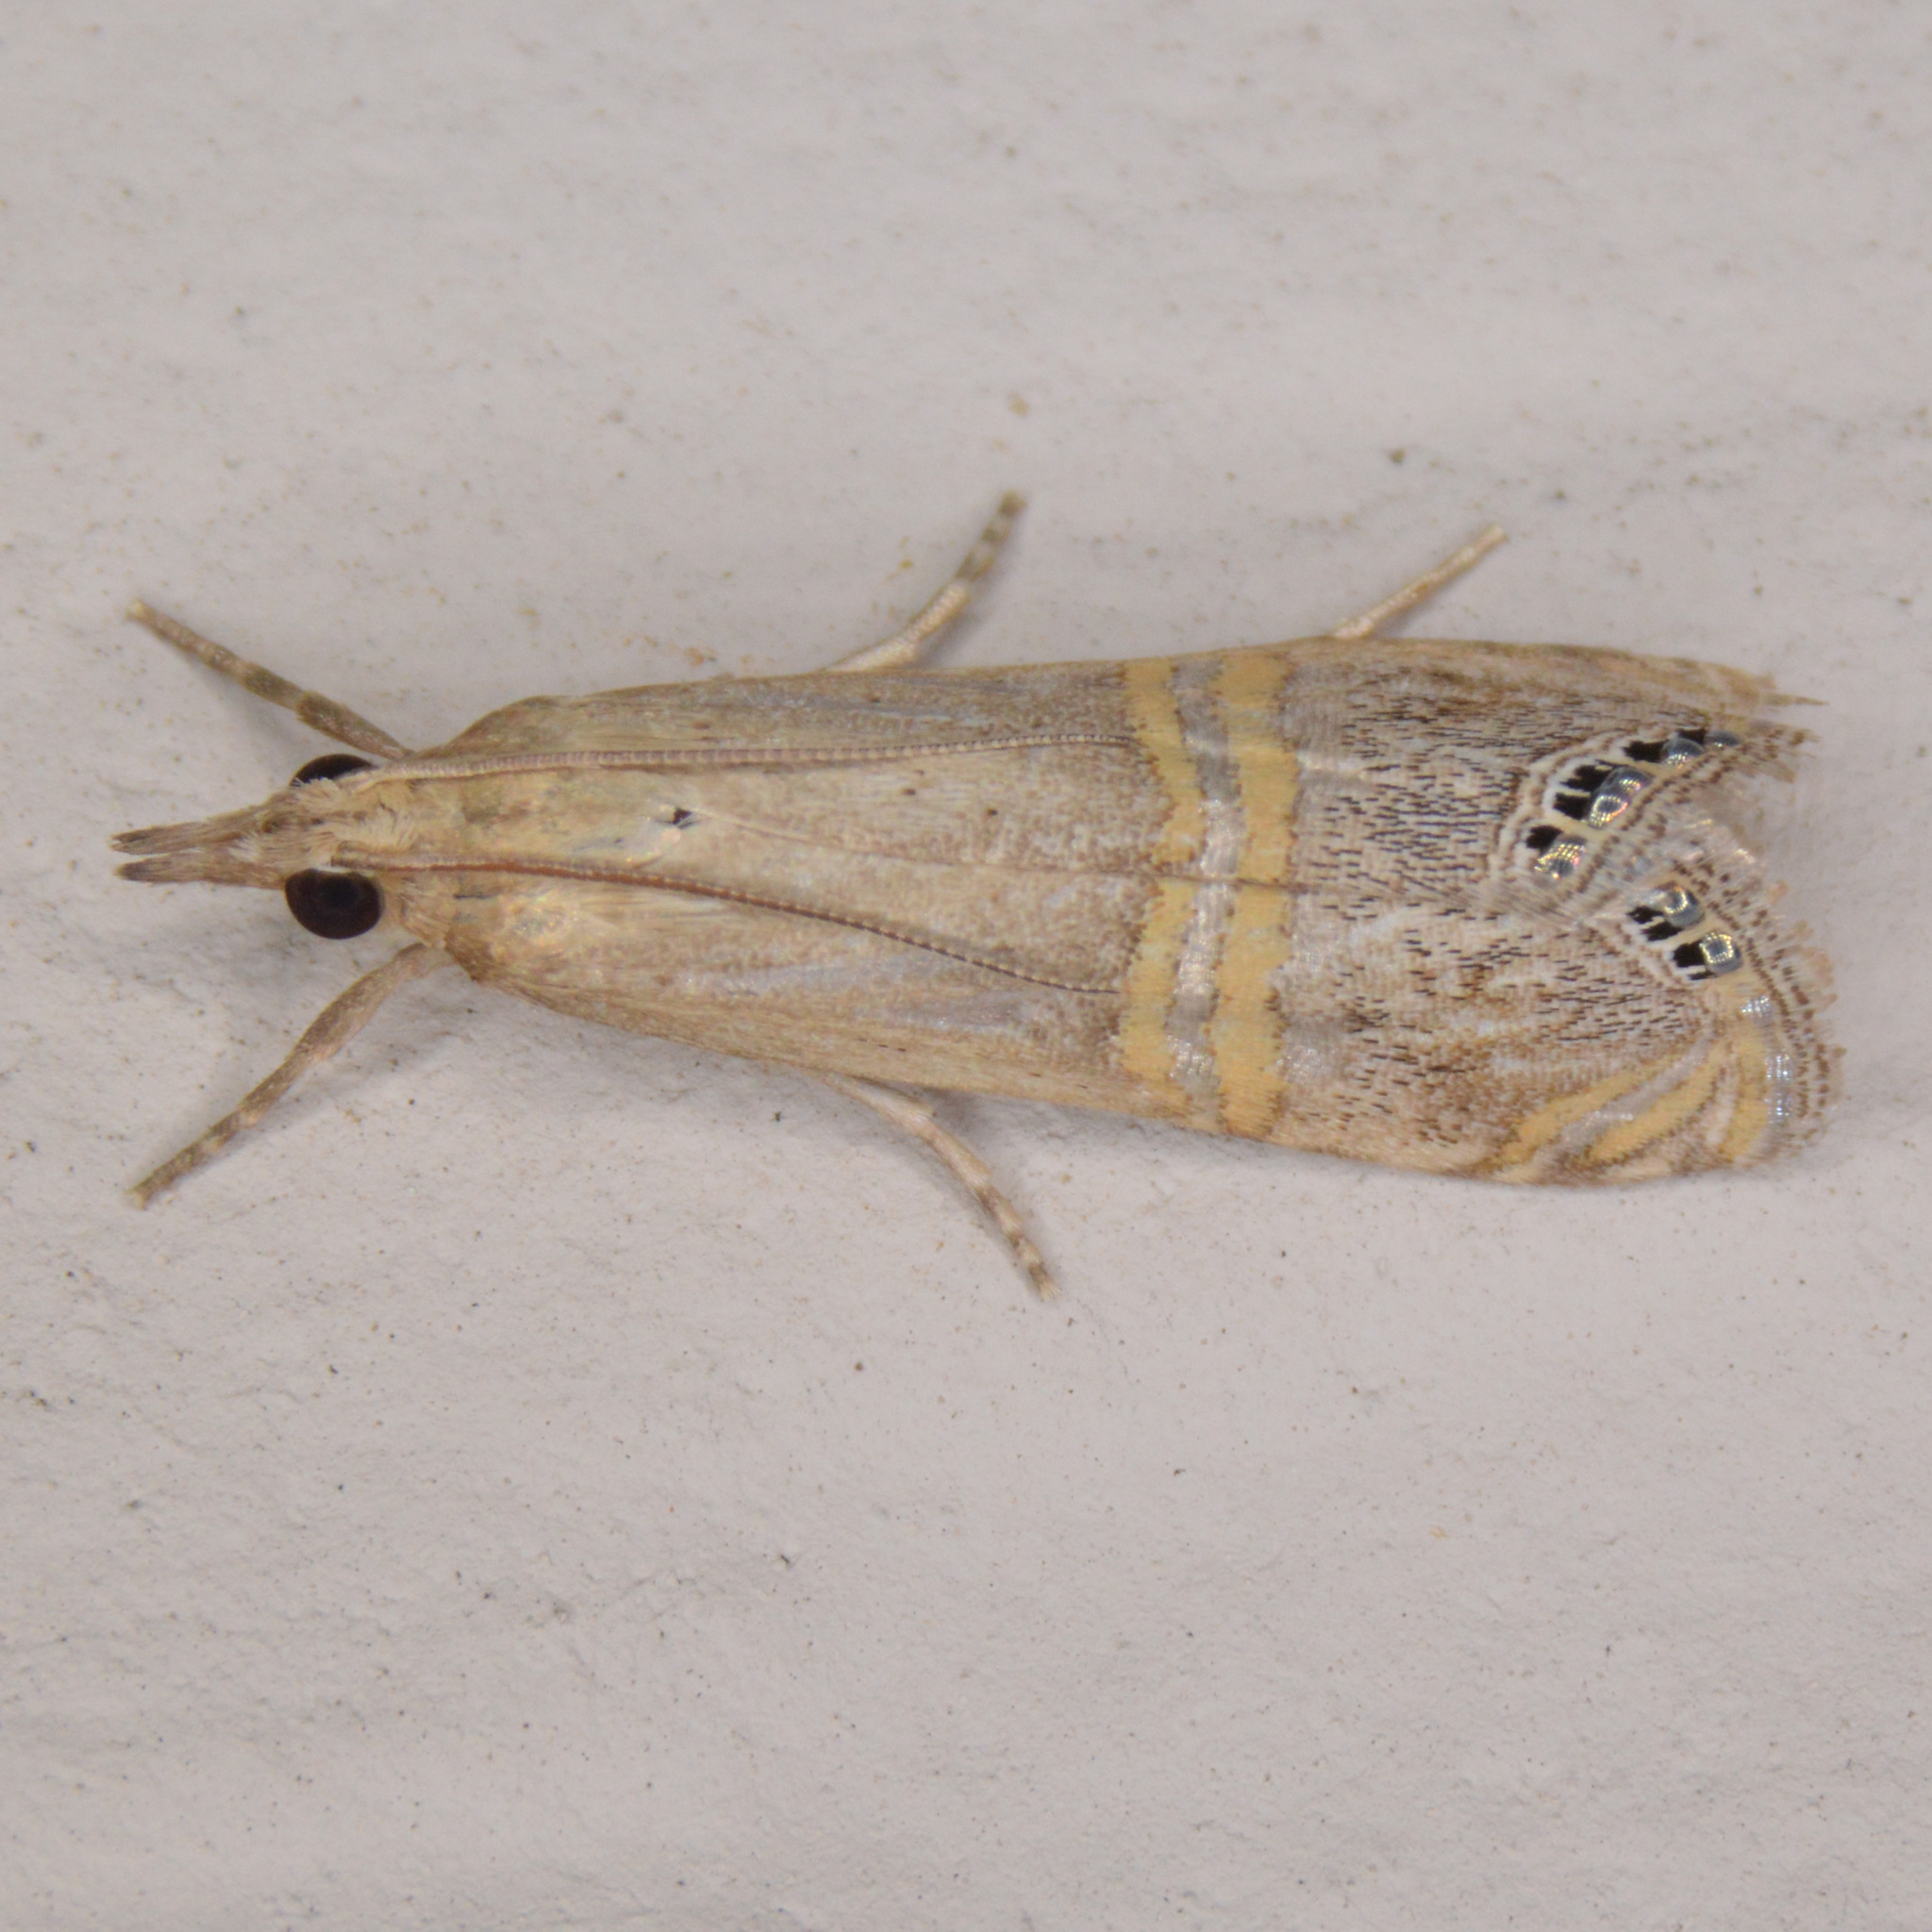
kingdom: Animalia
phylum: Arthropoda
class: Insecta
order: Lepidoptera
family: Crambidae
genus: Euchromius
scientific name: Euchromius ocellea
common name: Necklace veneer moth
